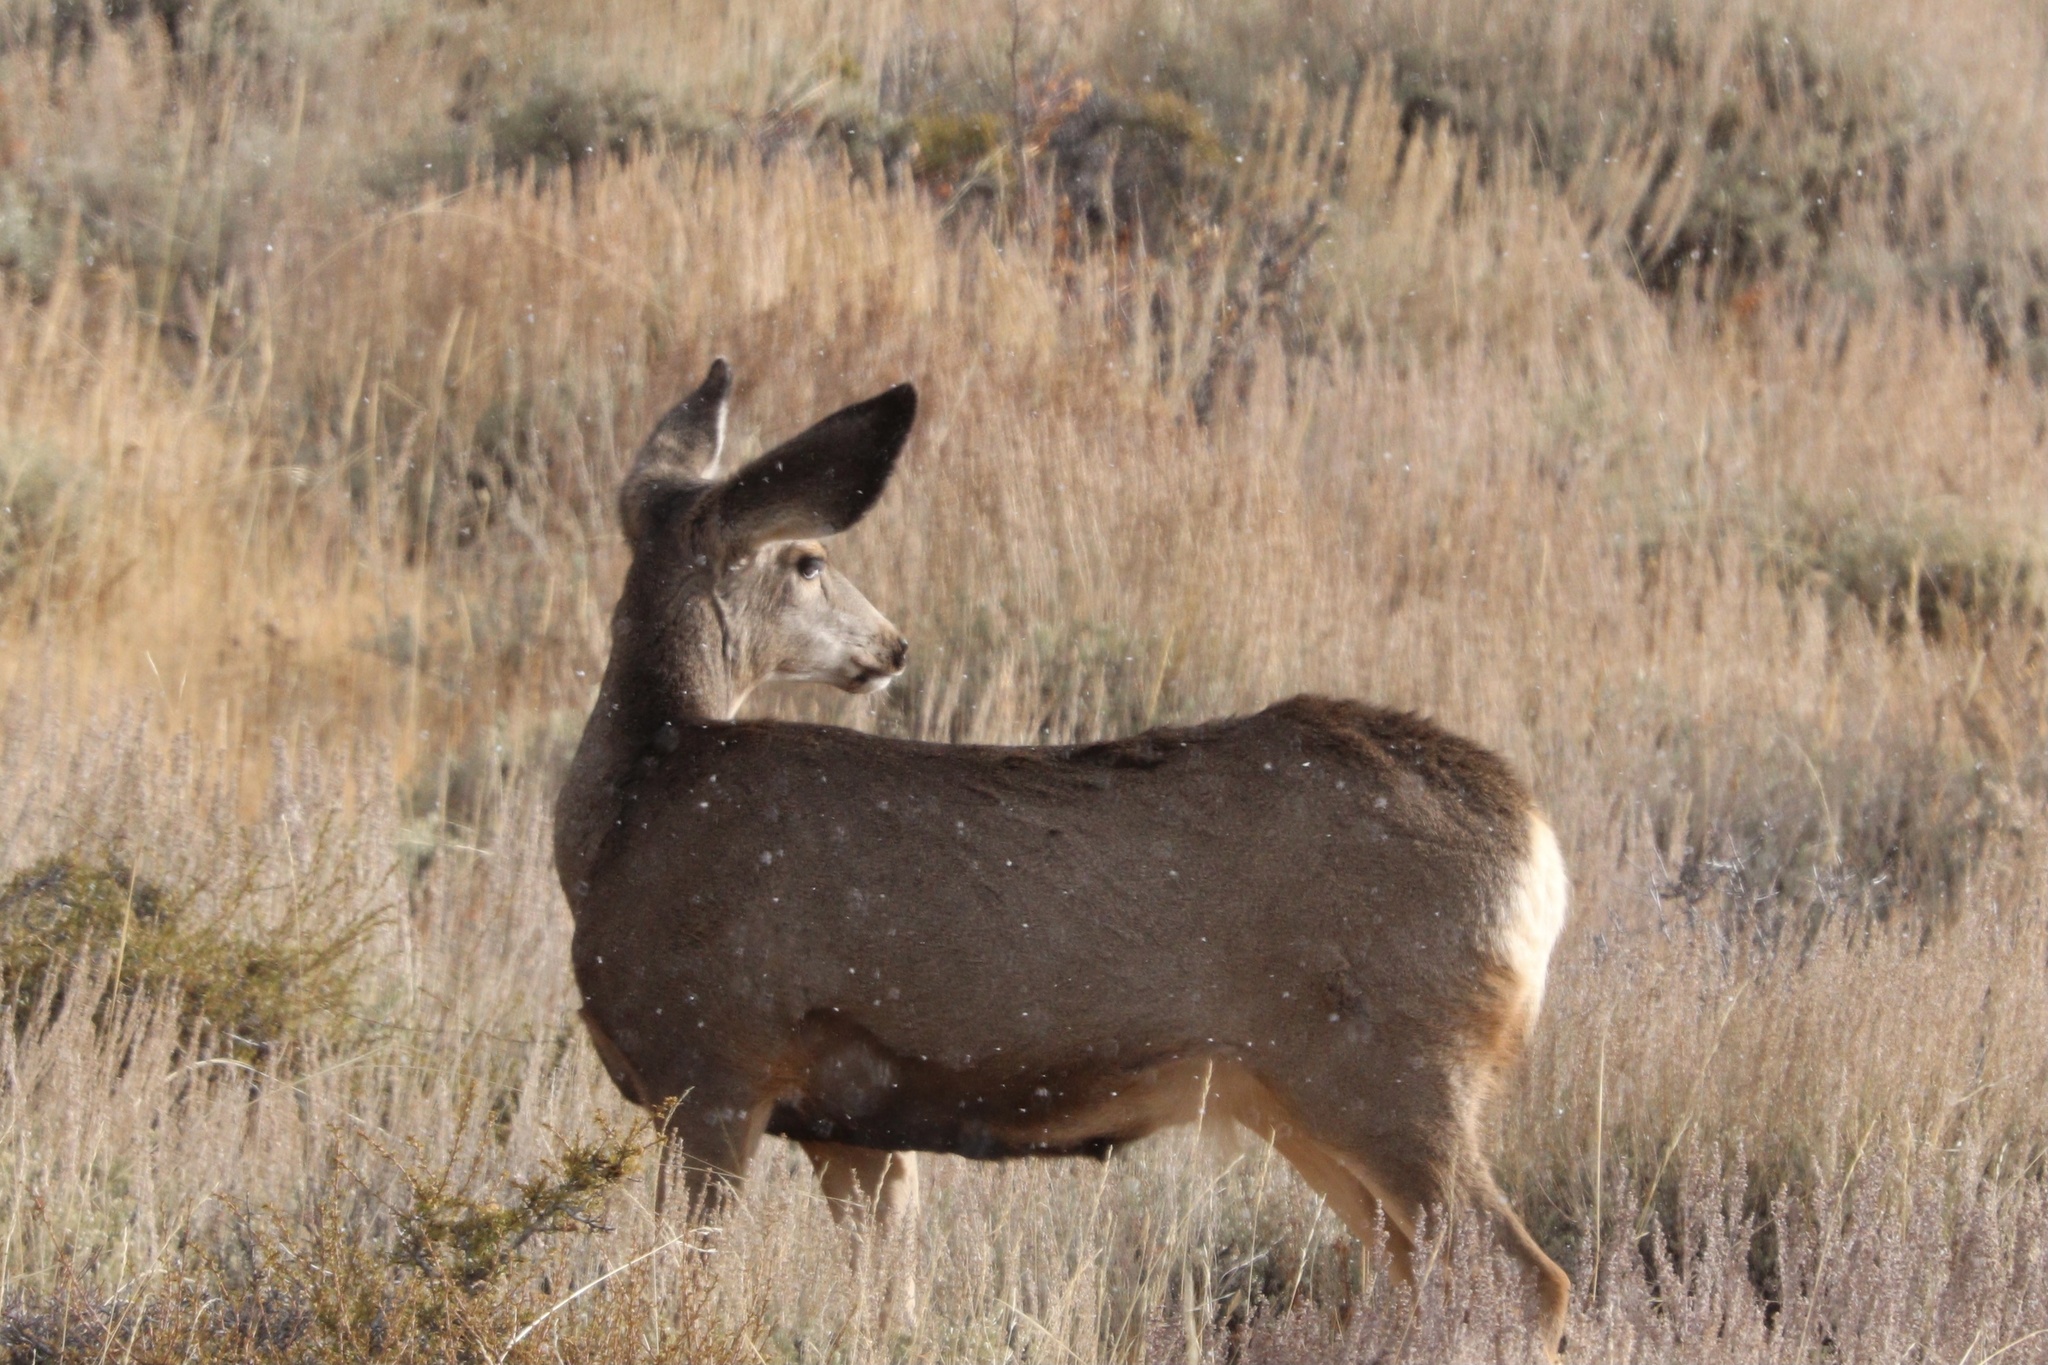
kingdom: Animalia
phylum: Chordata
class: Mammalia
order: Artiodactyla
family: Cervidae
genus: Odocoileus
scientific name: Odocoileus hemionus
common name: Mule deer
